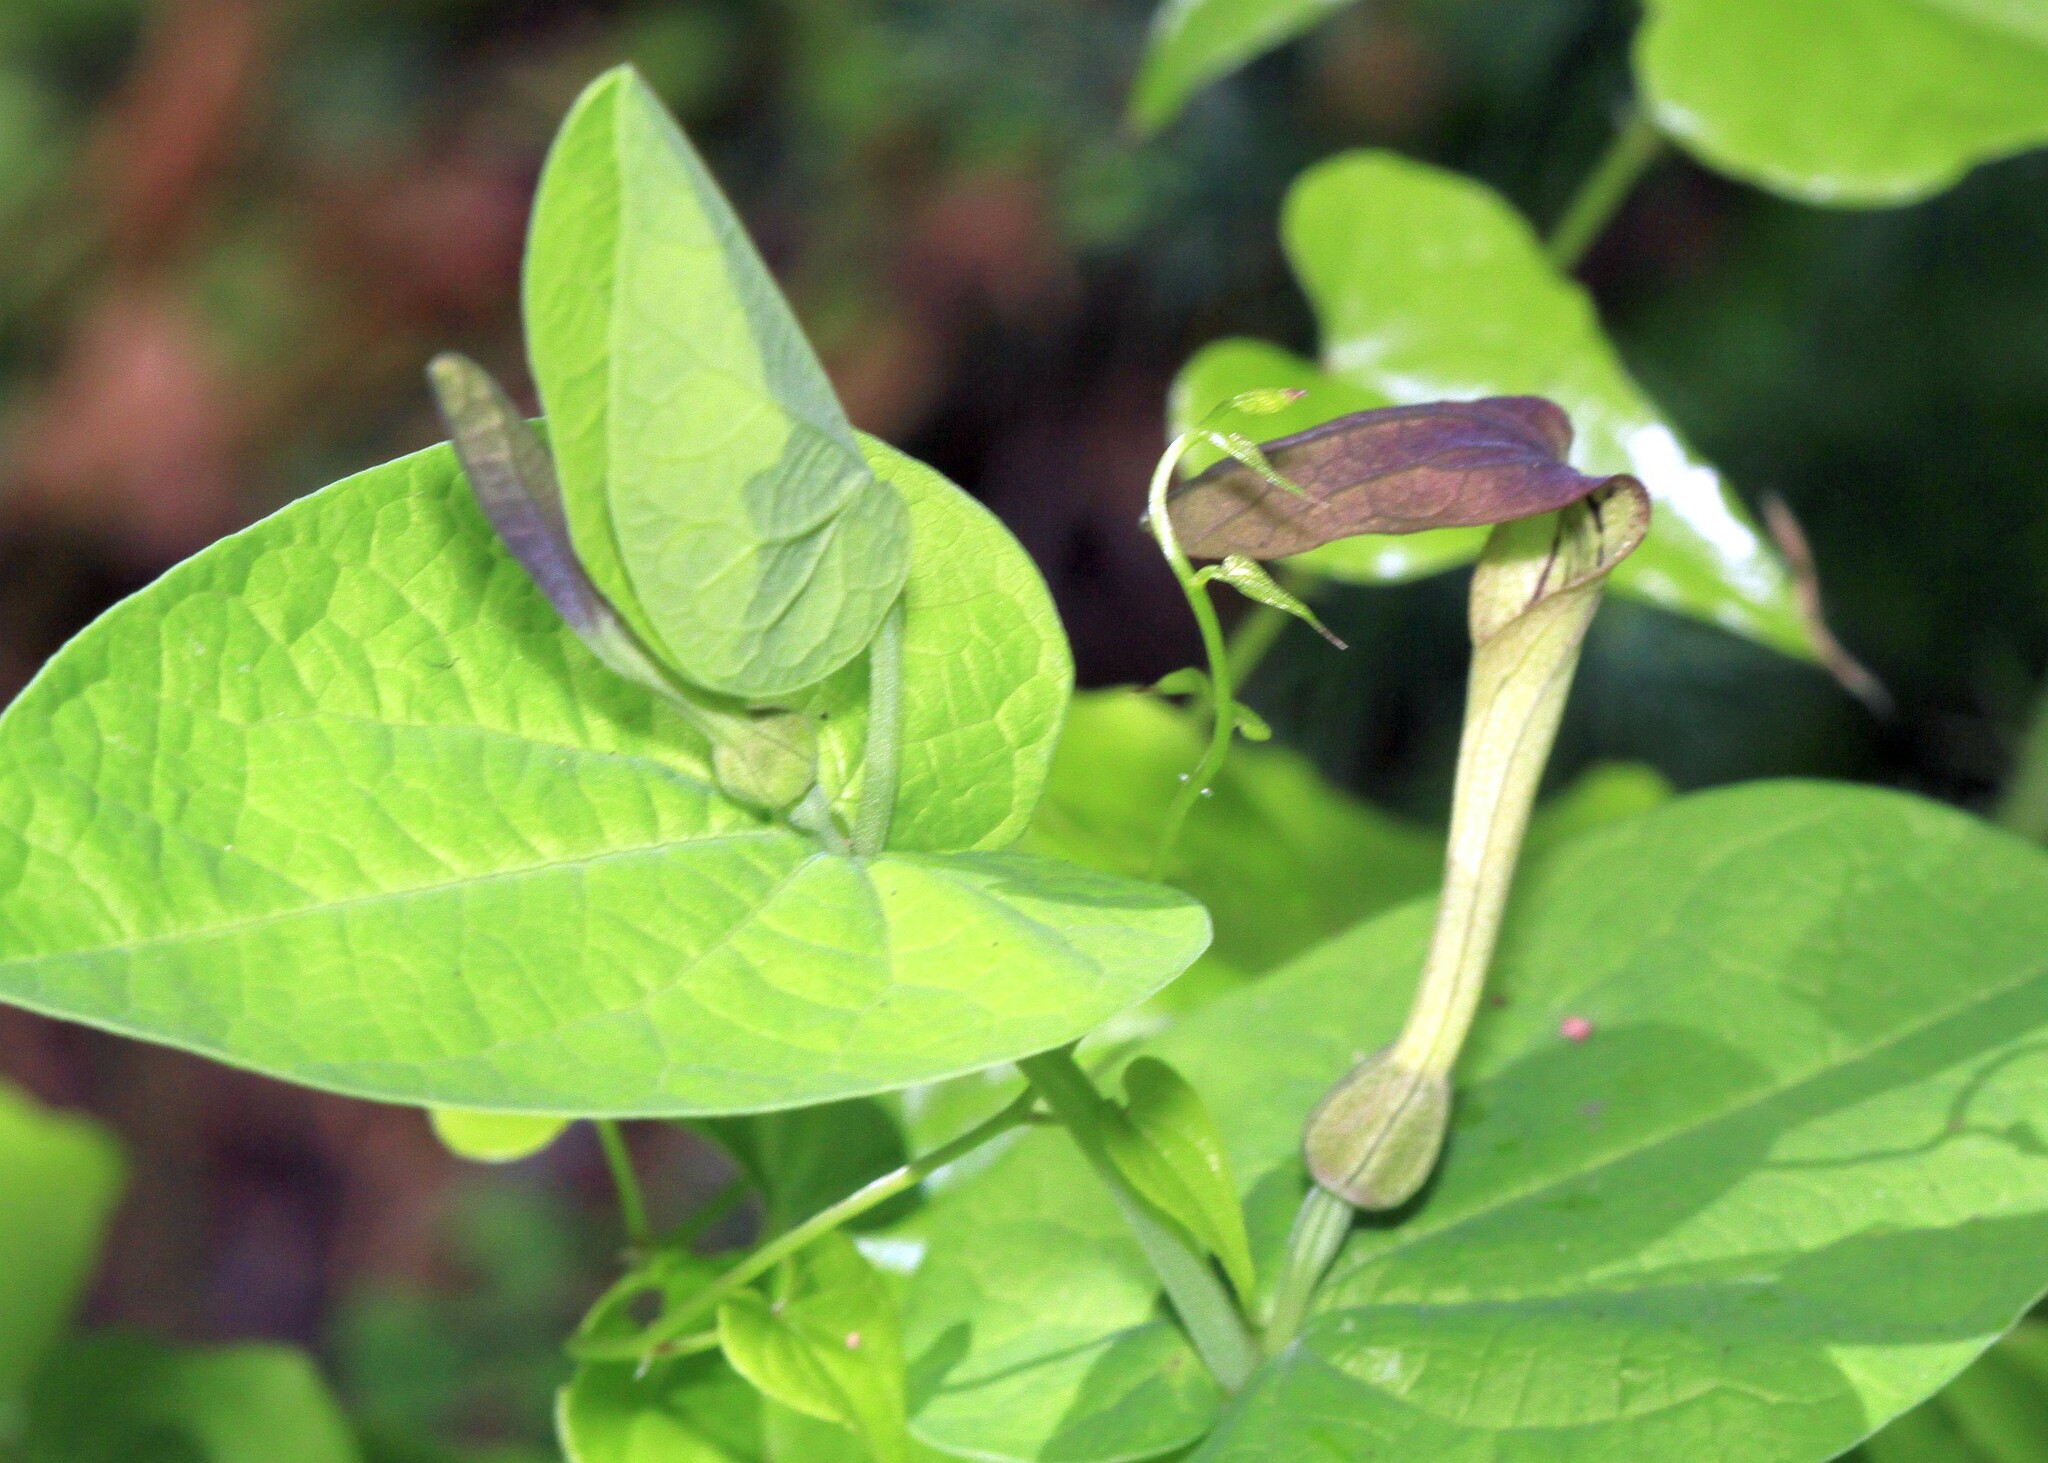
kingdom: Plantae
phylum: Tracheophyta
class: Magnoliopsida
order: Piperales
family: Aristolochiaceae
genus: Aristolochia
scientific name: Aristolochia rotunda
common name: Smearwort
